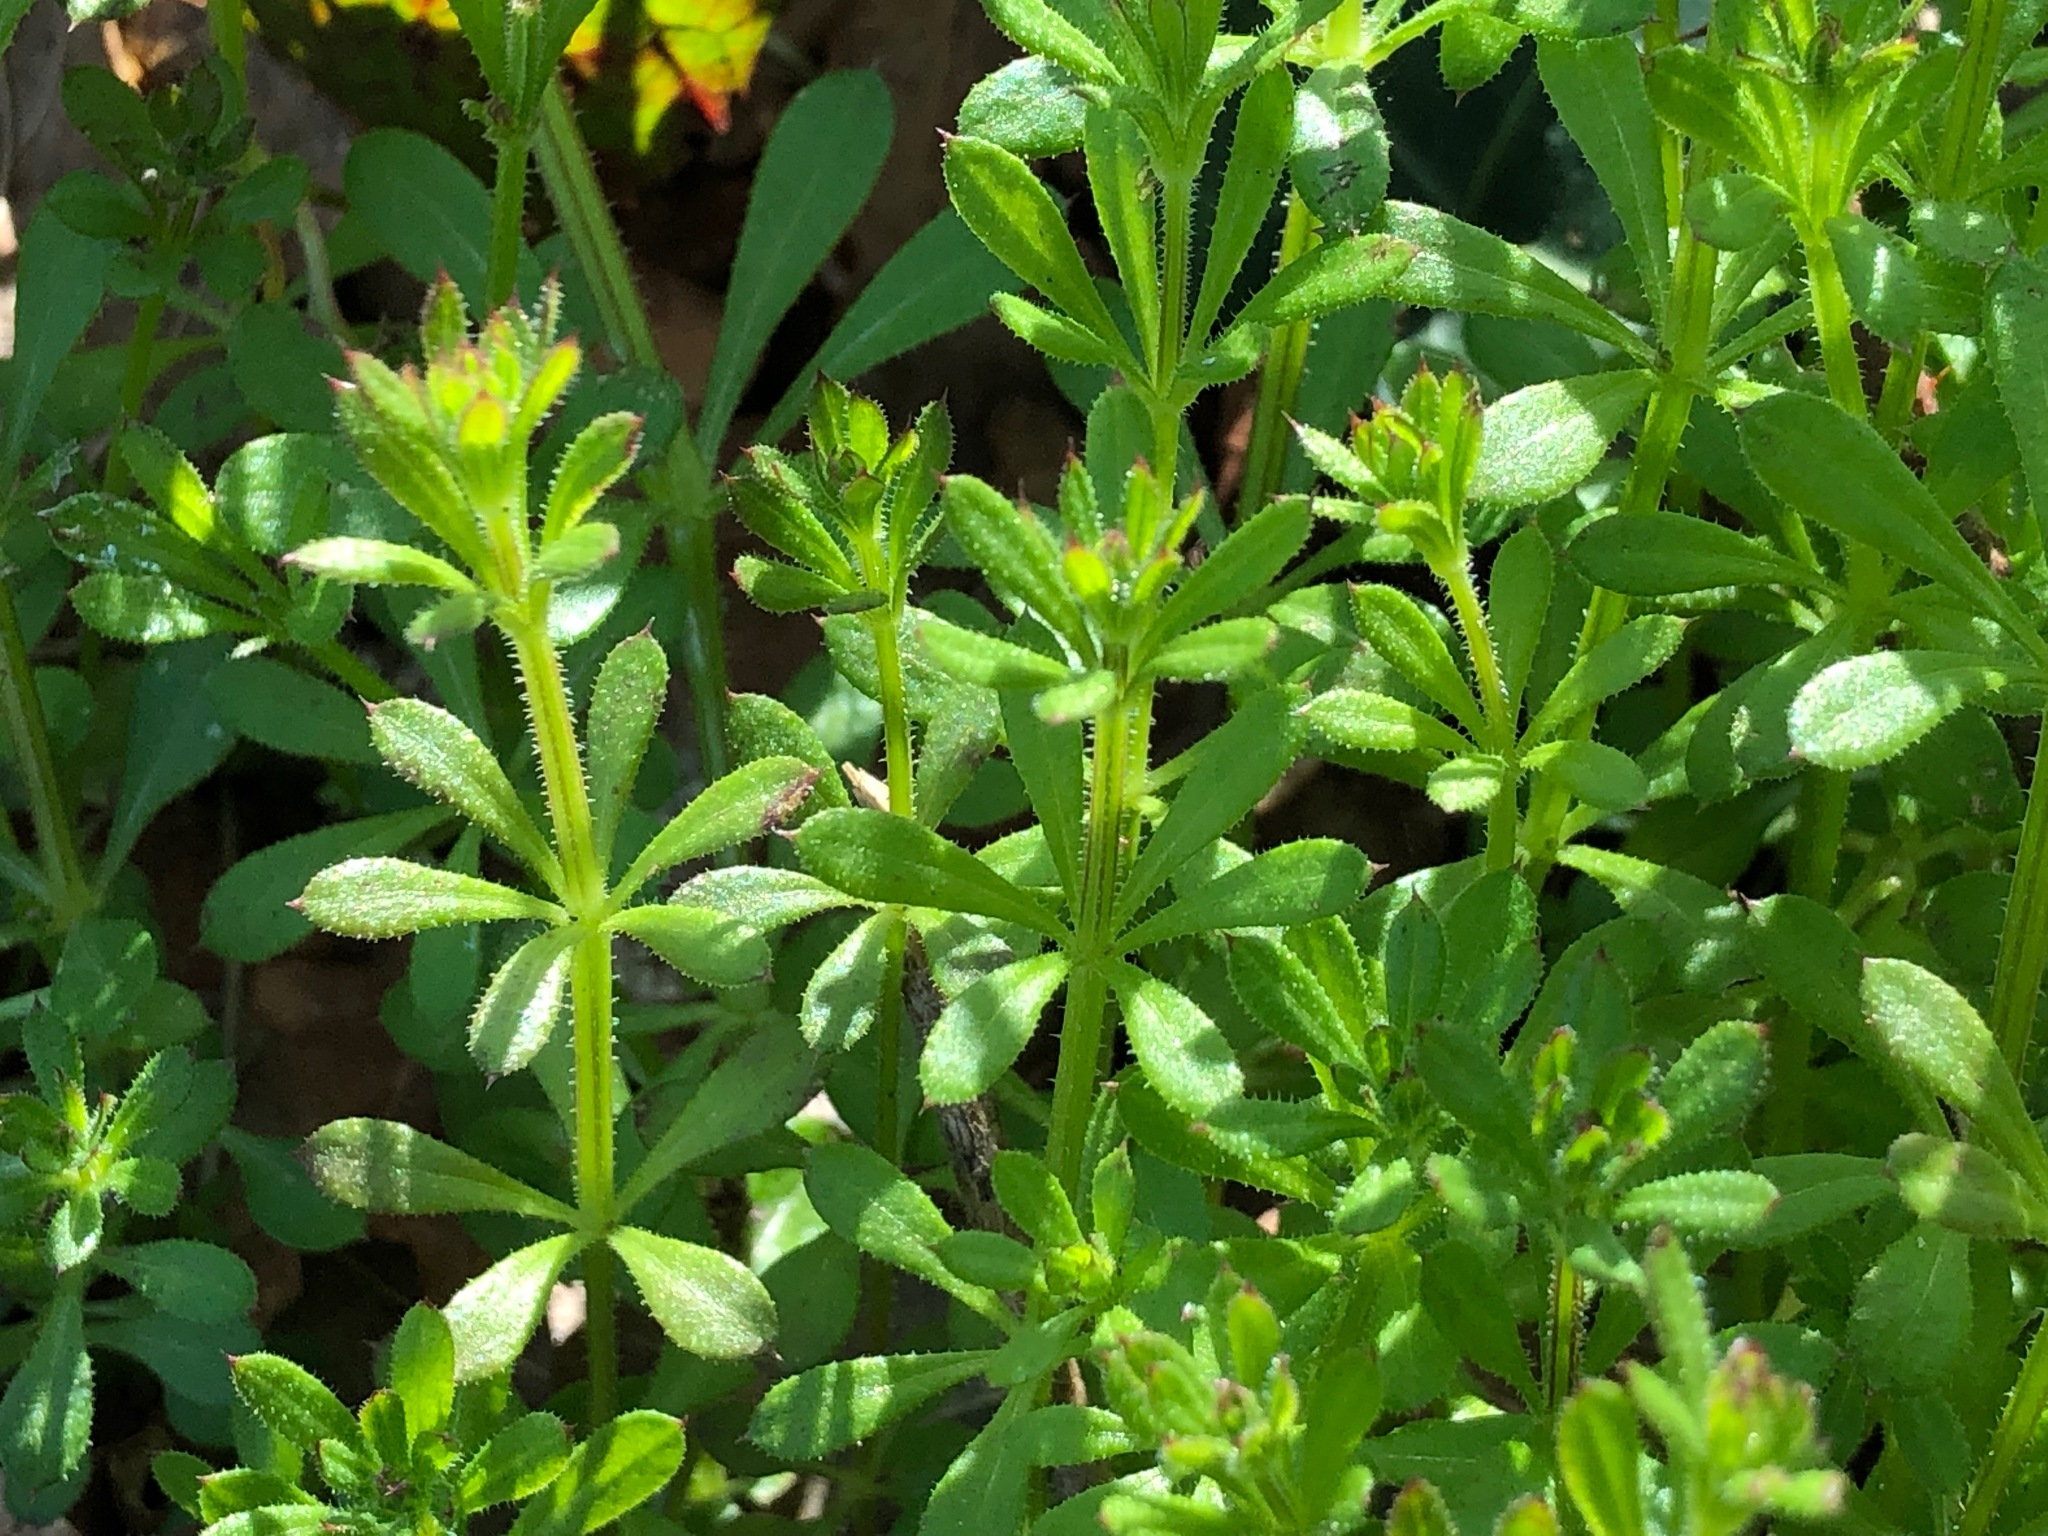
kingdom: Plantae
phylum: Tracheophyta
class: Magnoliopsida
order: Gentianales
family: Rubiaceae
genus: Galium
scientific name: Galium aparine
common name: Cleavers
